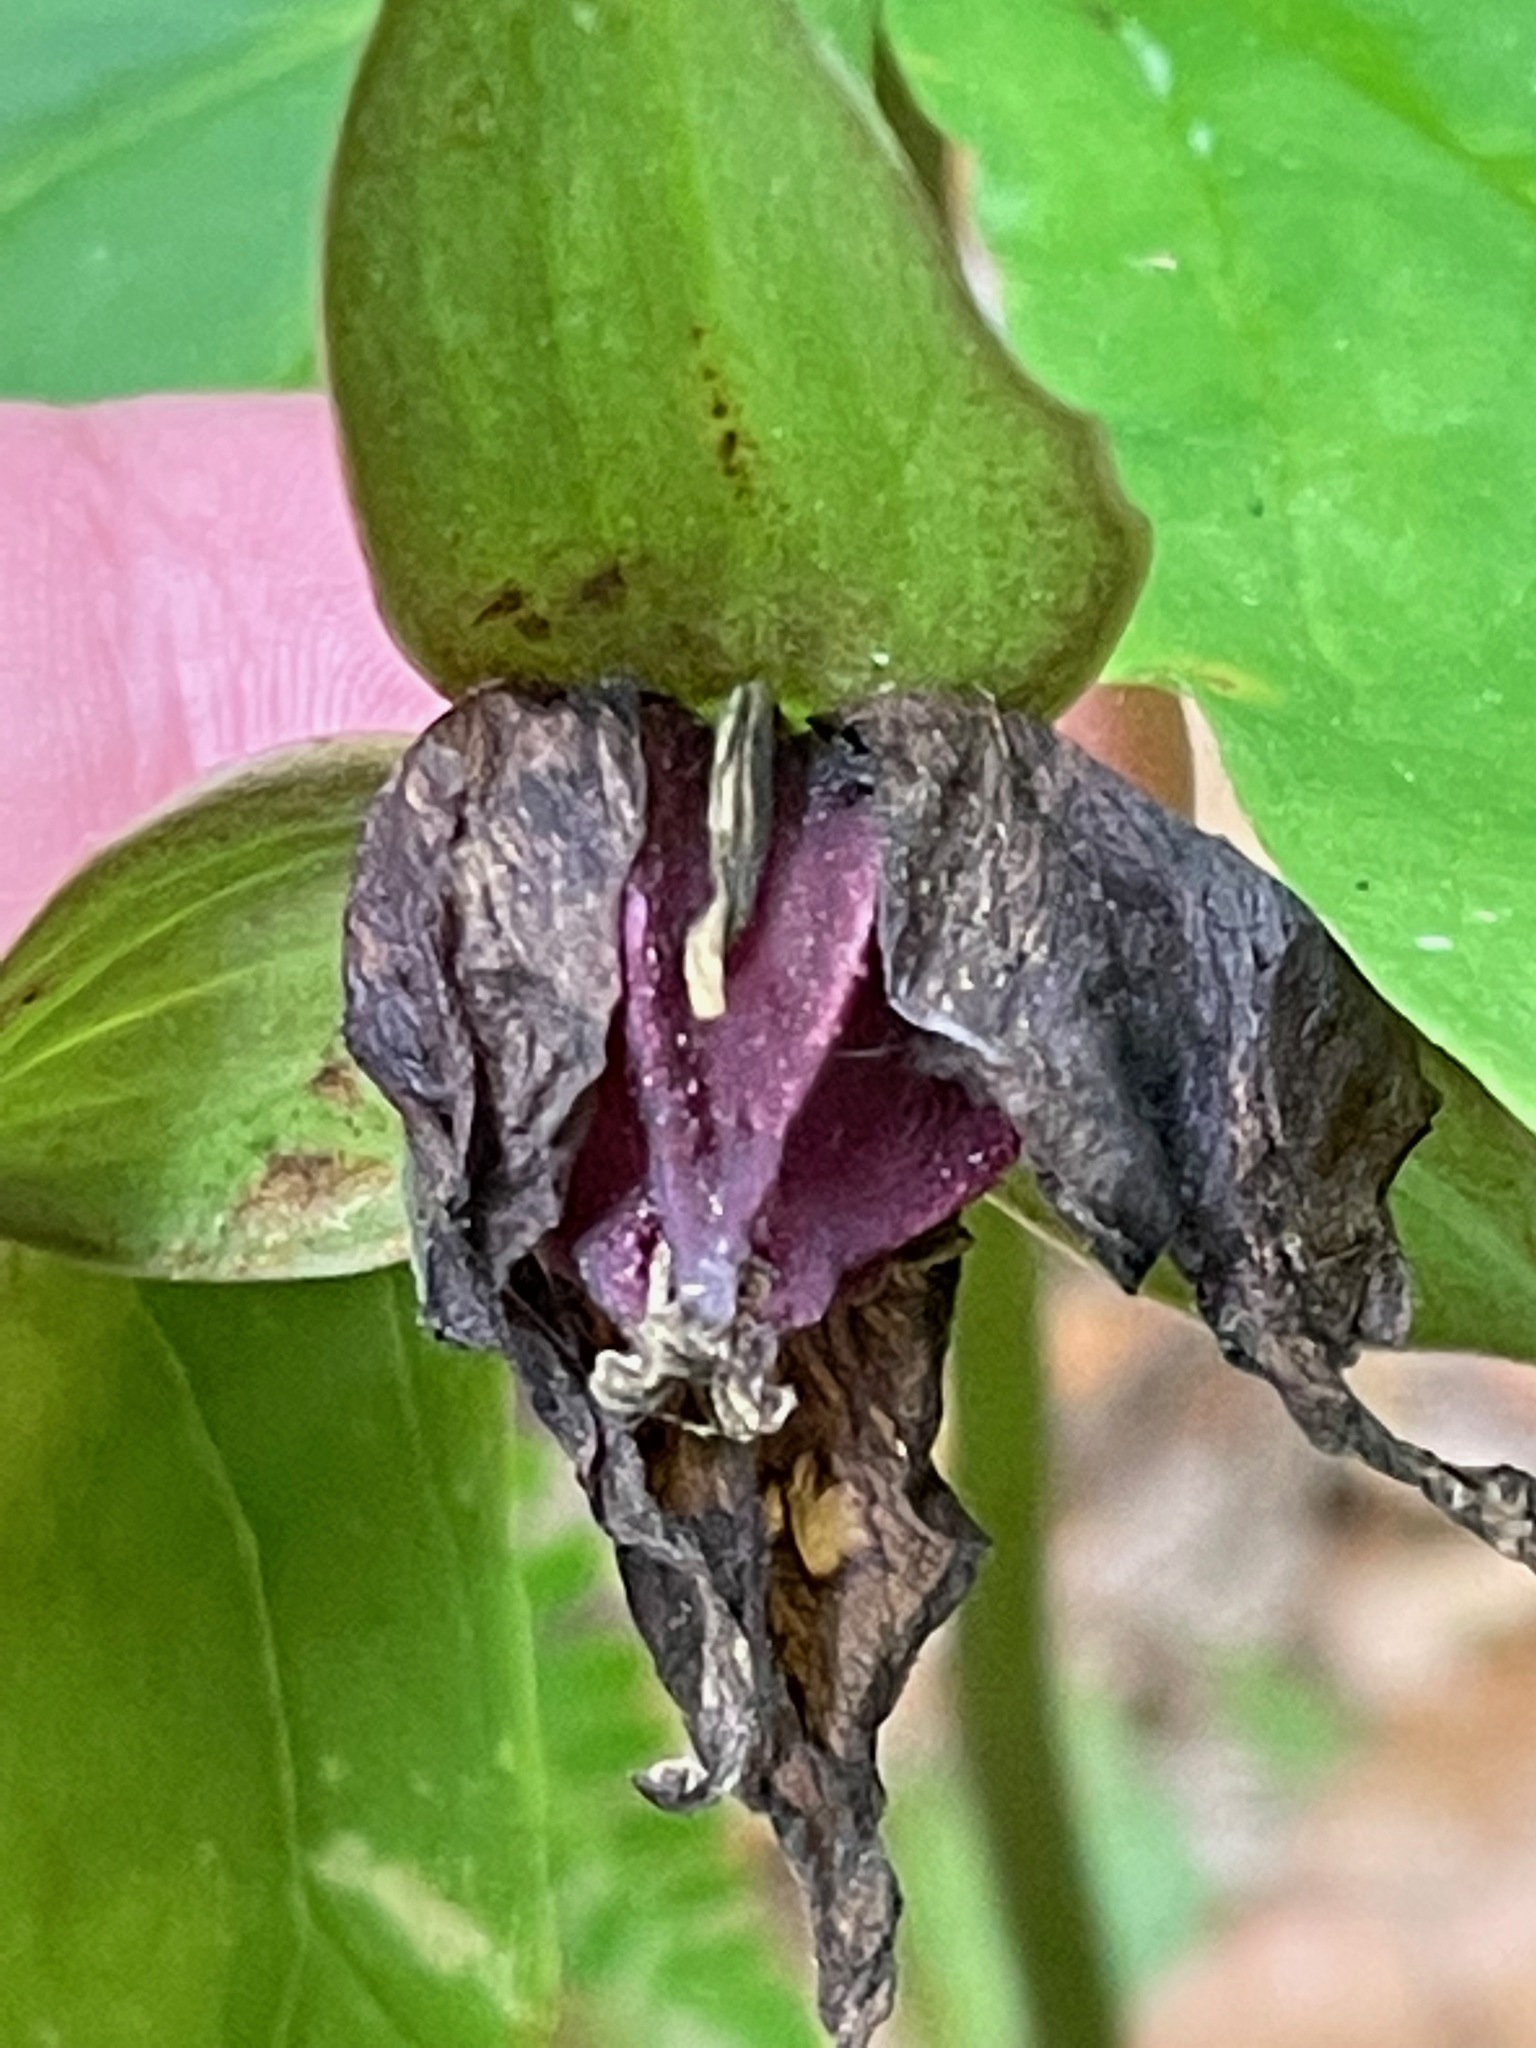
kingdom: Plantae
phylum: Tracheophyta
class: Liliopsida
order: Liliales
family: Melanthiaceae
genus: Trillium
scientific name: Trillium erectum
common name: Purple trillium
